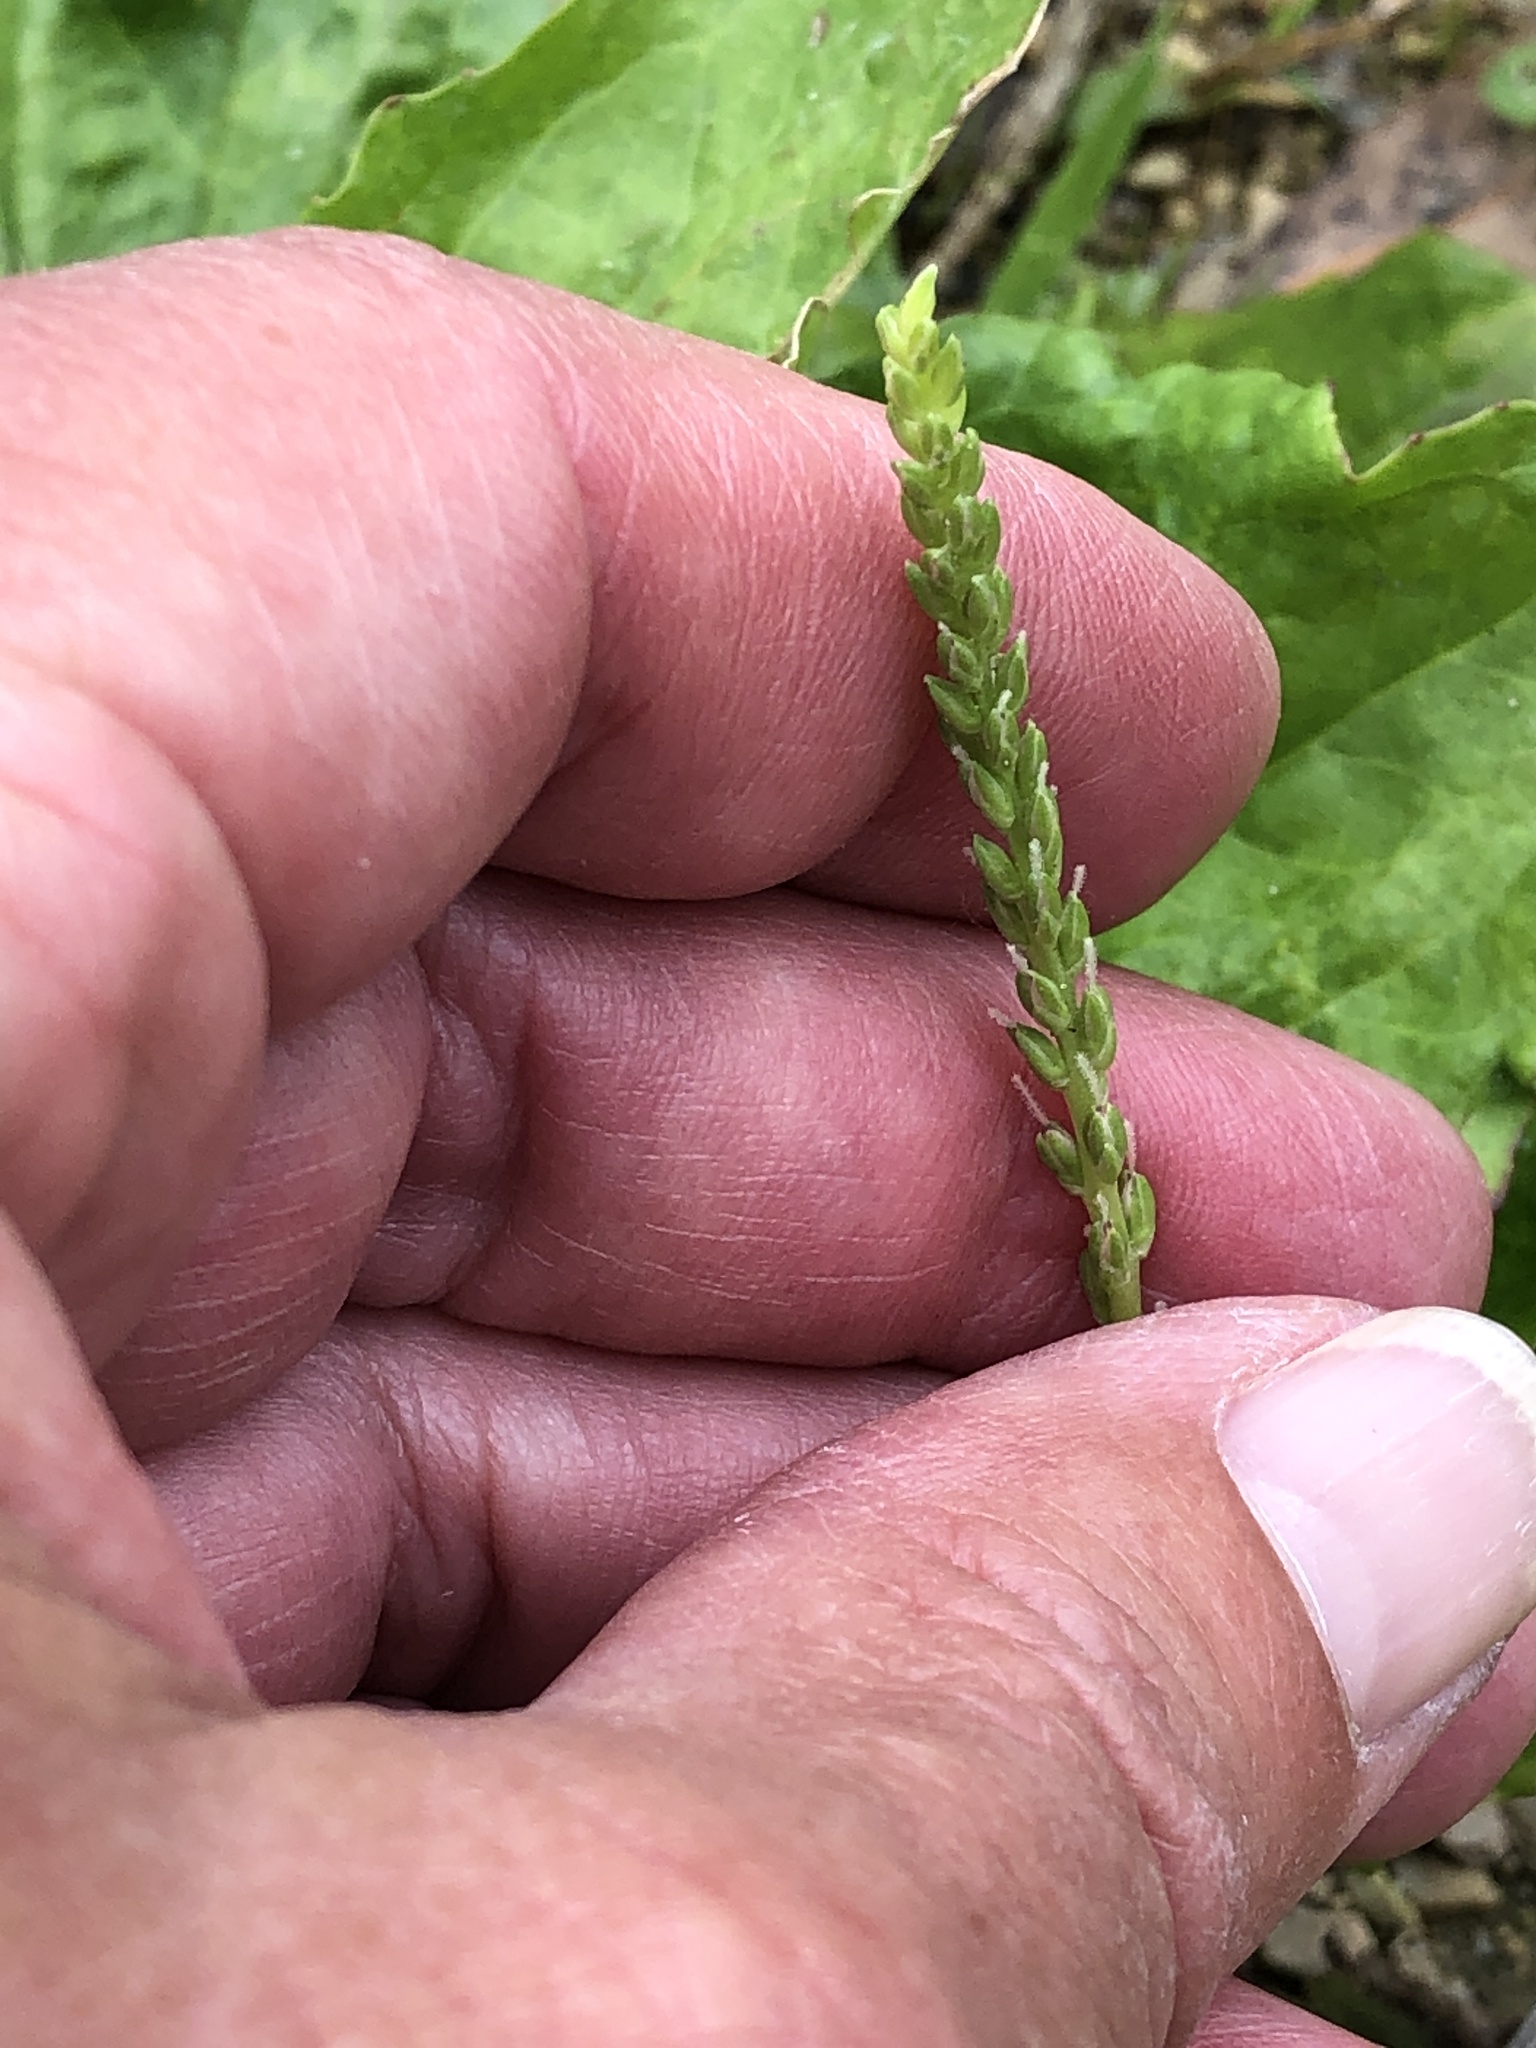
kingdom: Plantae
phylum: Tracheophyta
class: Magnoliopsida
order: Lamiales
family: Plantaginaceae
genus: Plantago
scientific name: Plantago rugelii
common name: American plantain
